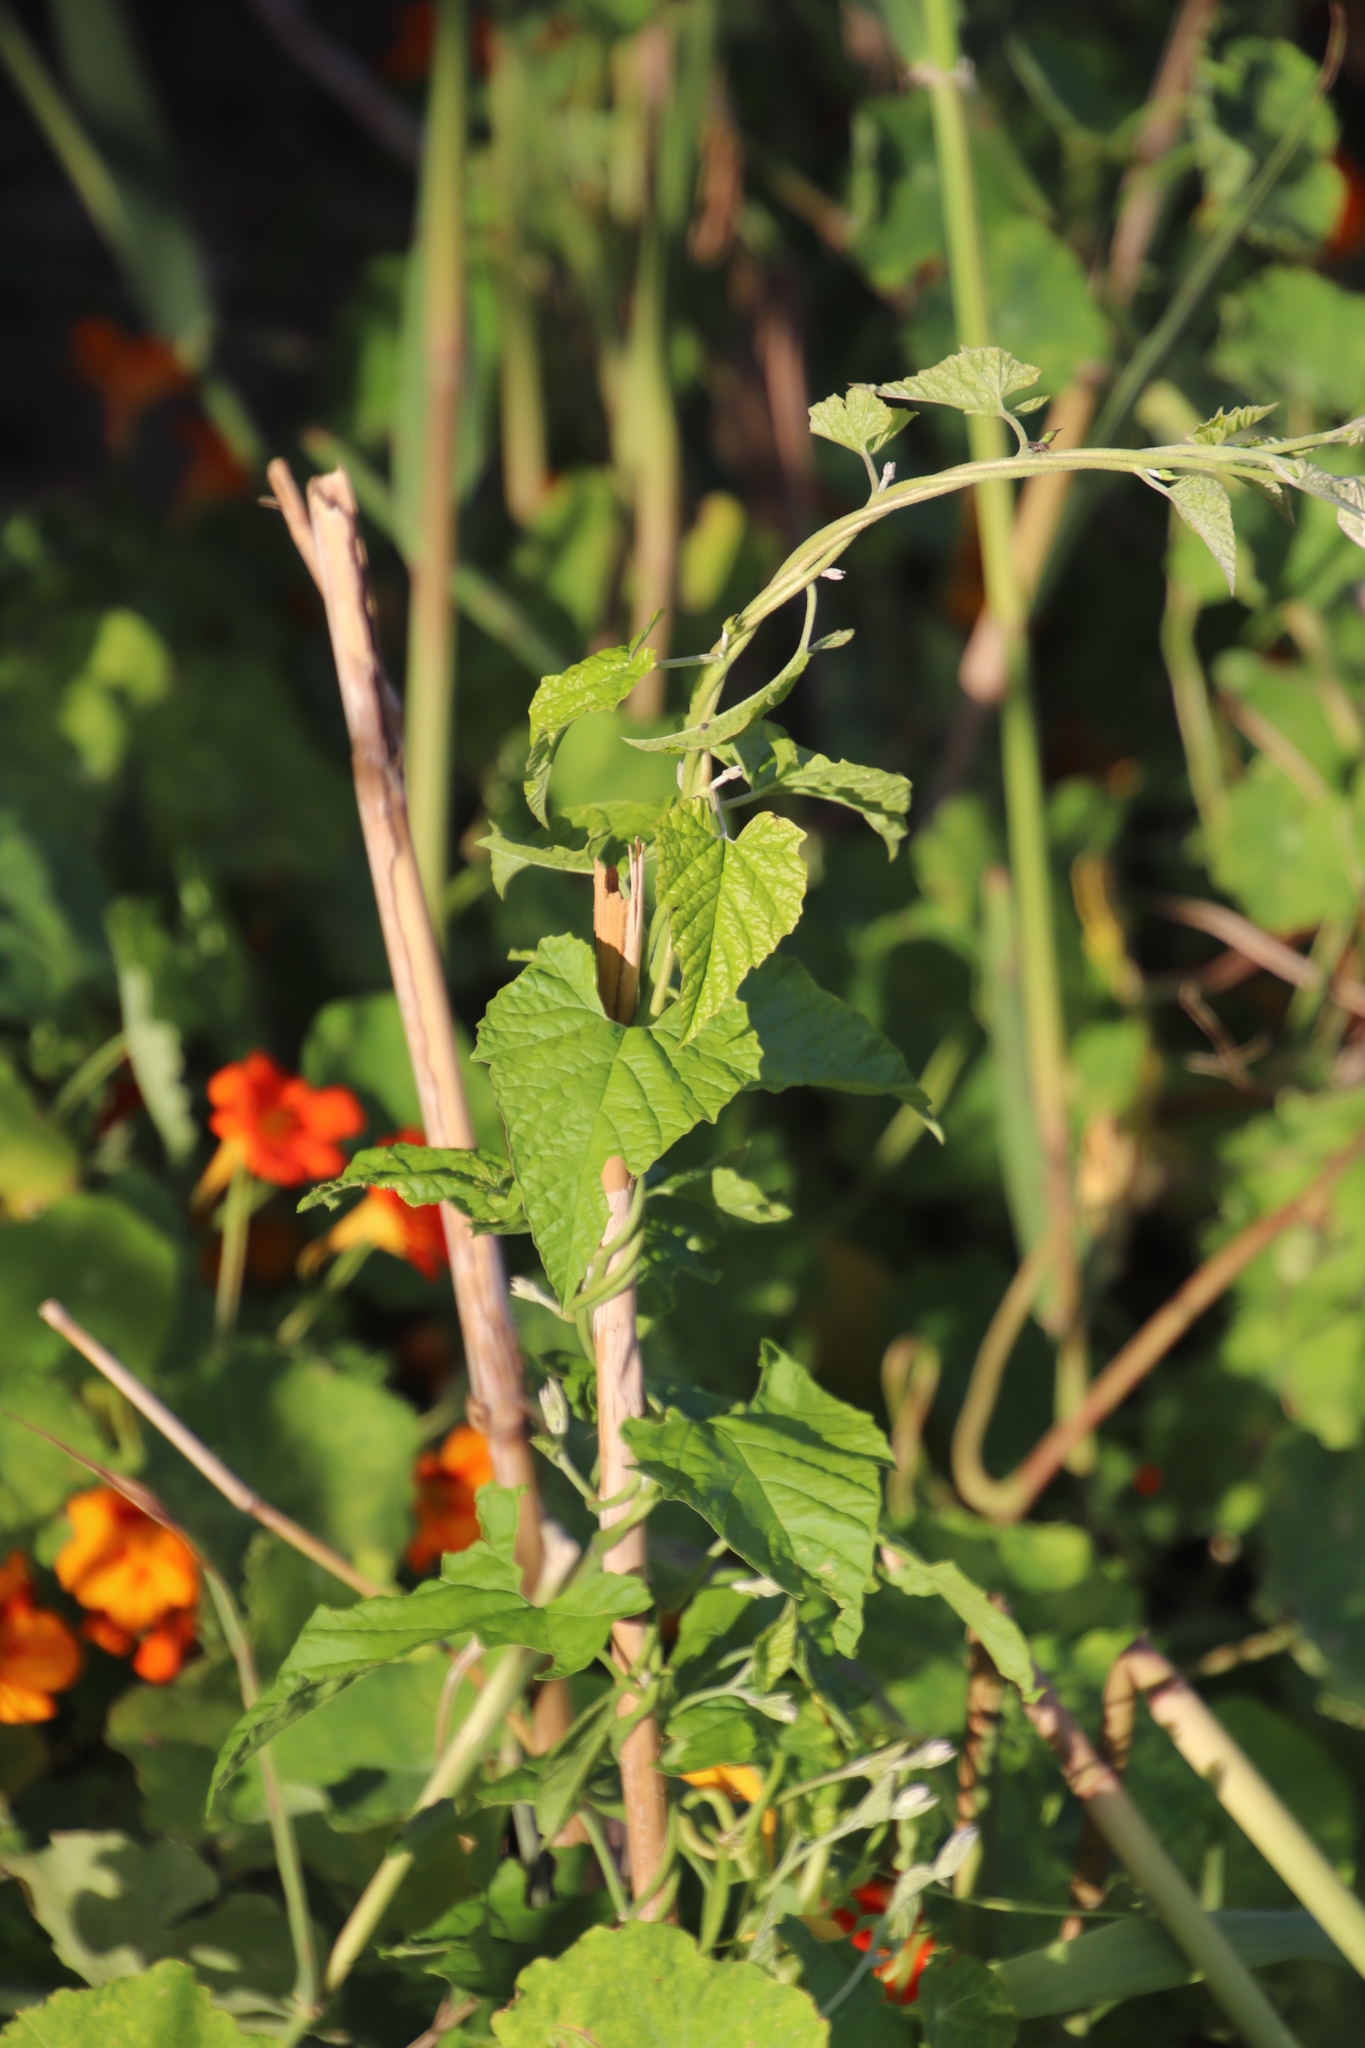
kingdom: Animalia
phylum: Arthropoda
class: Insecta
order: Coleoptera
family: Chrysomelidae
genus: Conchyloctenia
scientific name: Conchyloctenia punctata
